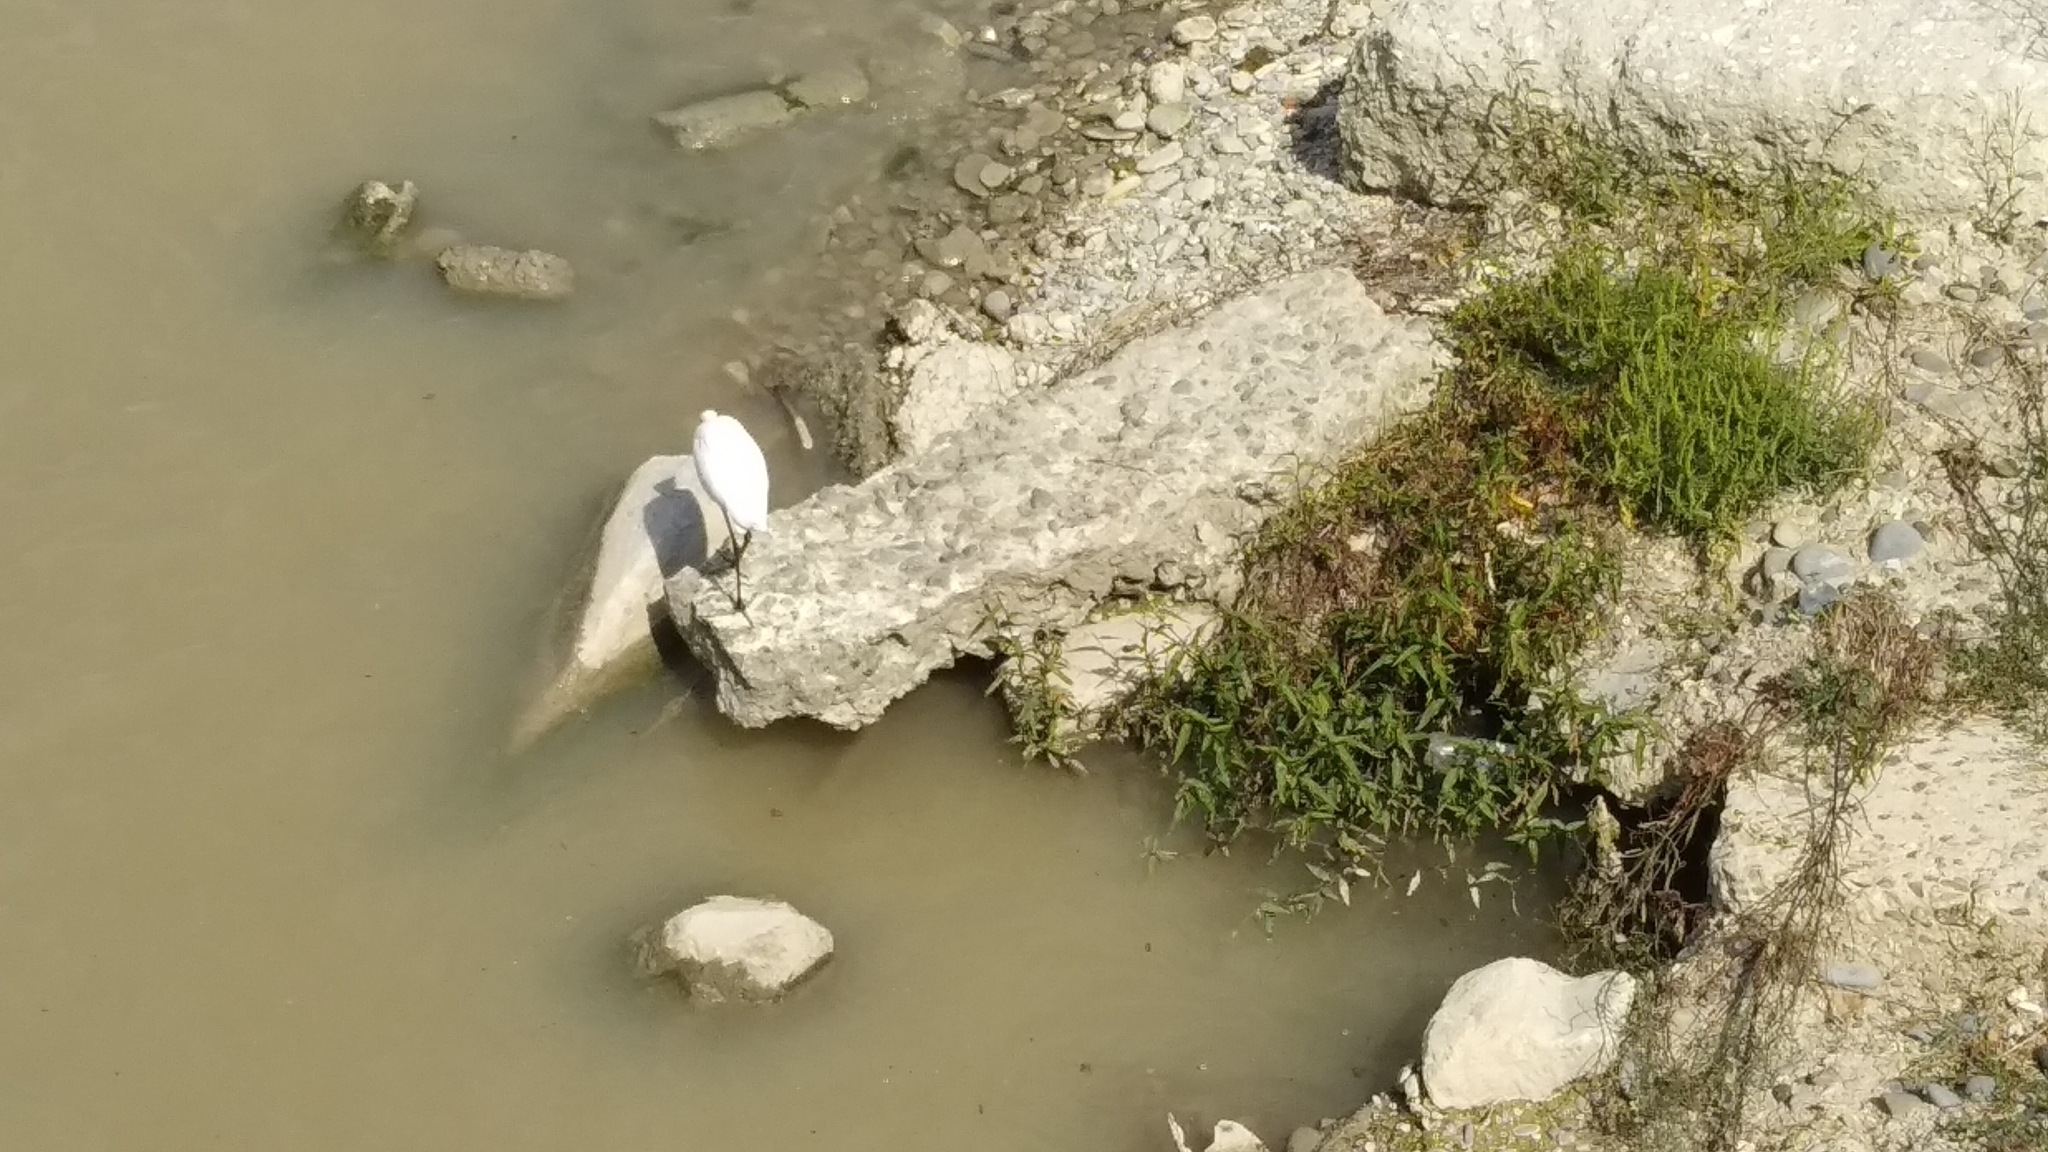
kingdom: Animalia
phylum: Chordata
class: Aves
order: Pelecaniformes
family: Ardeidae
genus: Egretta
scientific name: Egretta garzetta
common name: Little egret
